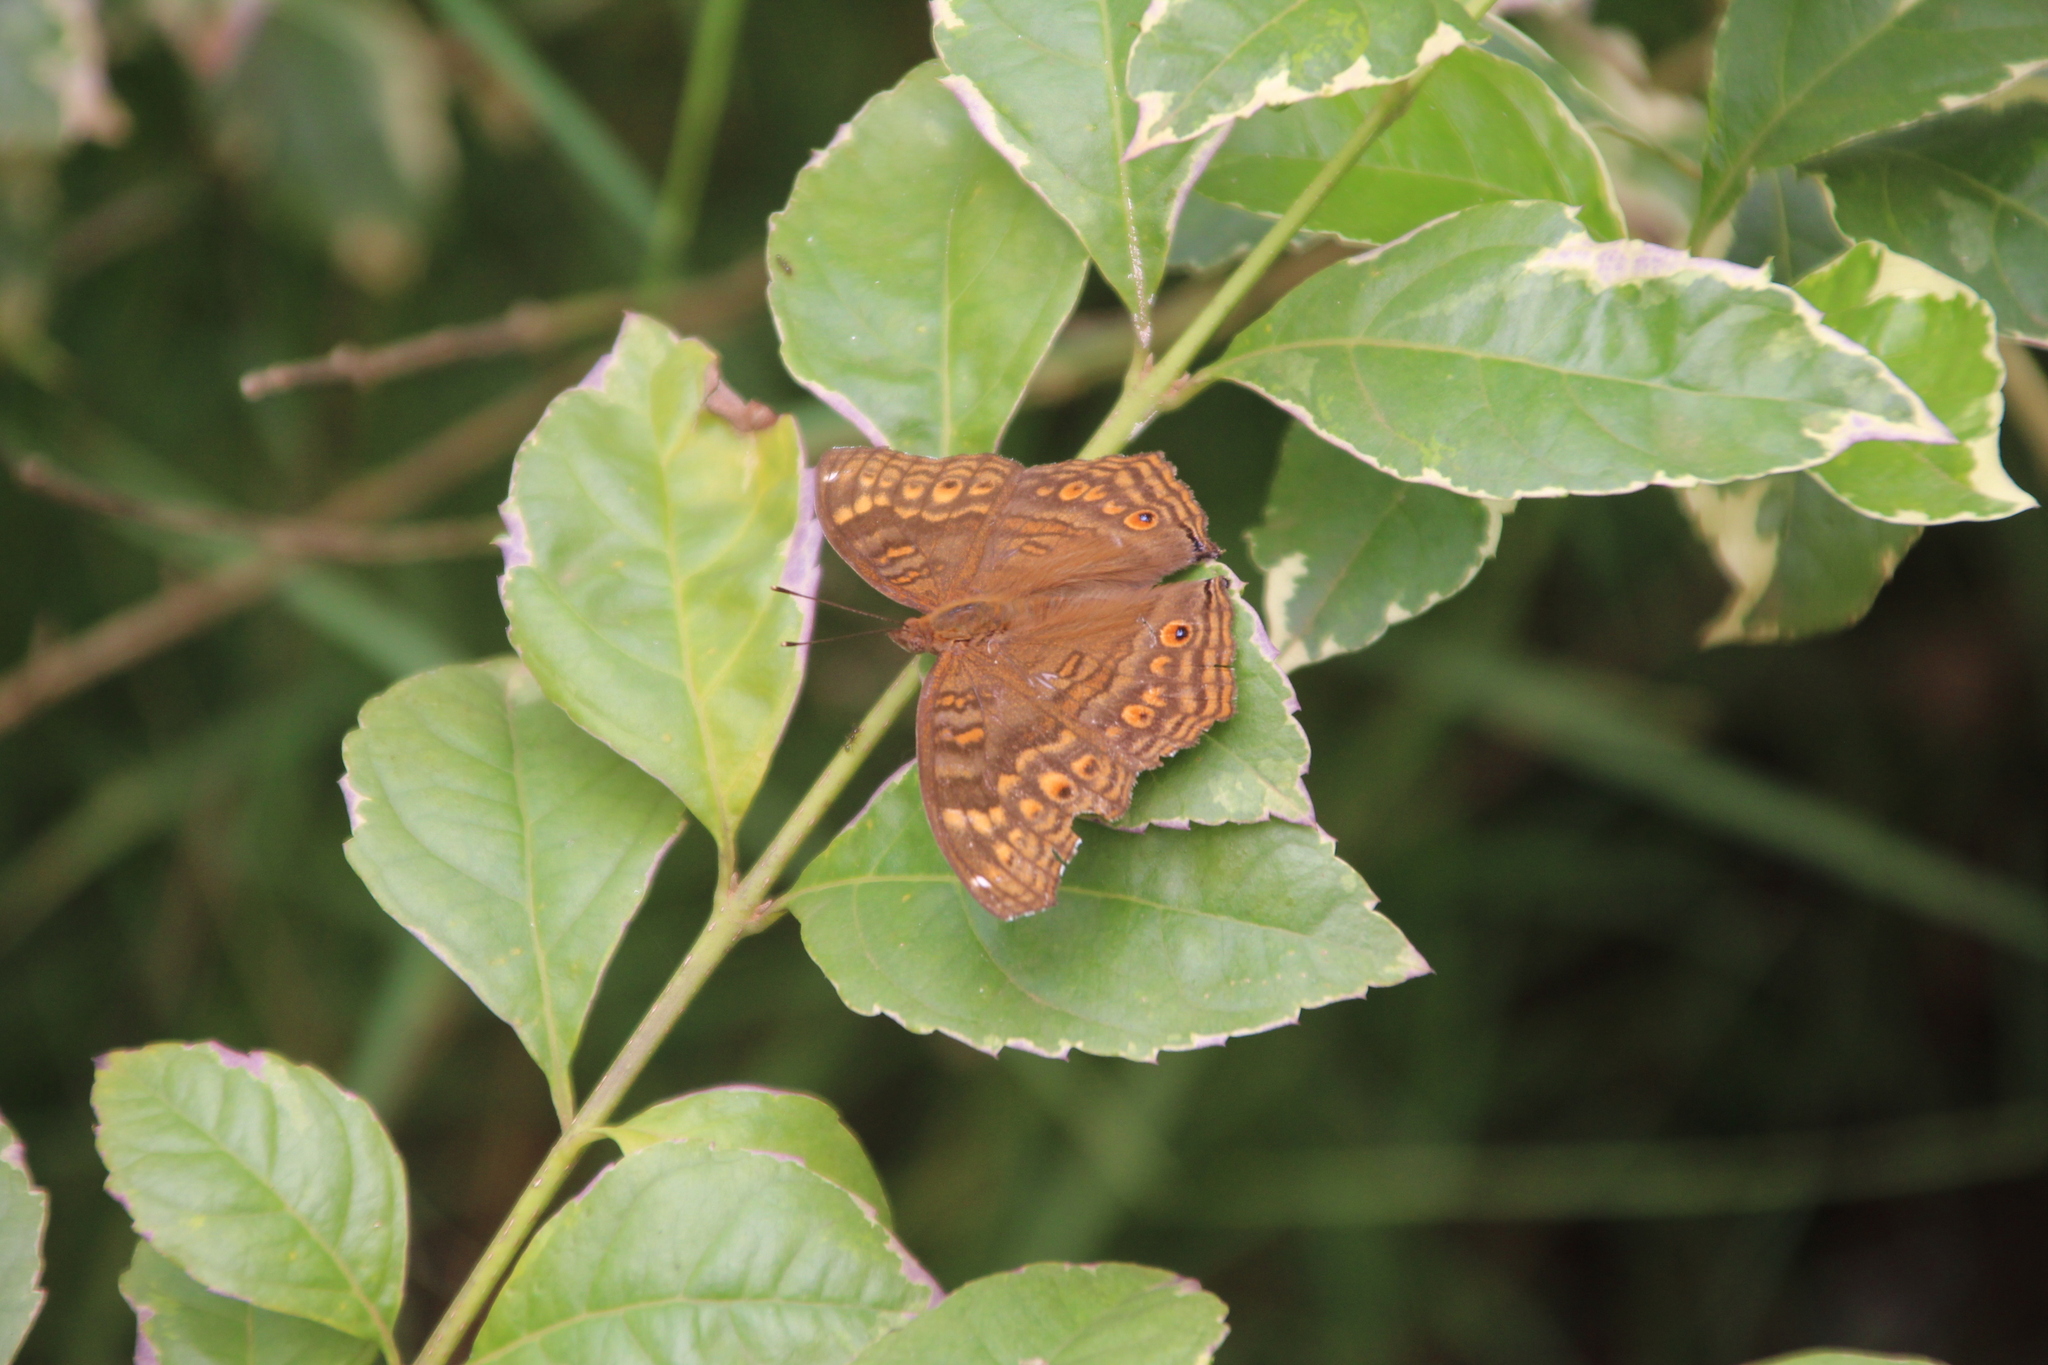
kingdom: Animalia
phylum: Arthropoda
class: Insecta
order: Lepidoptera
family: Nymphalidae
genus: Junonia
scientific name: Junonia chorimene
